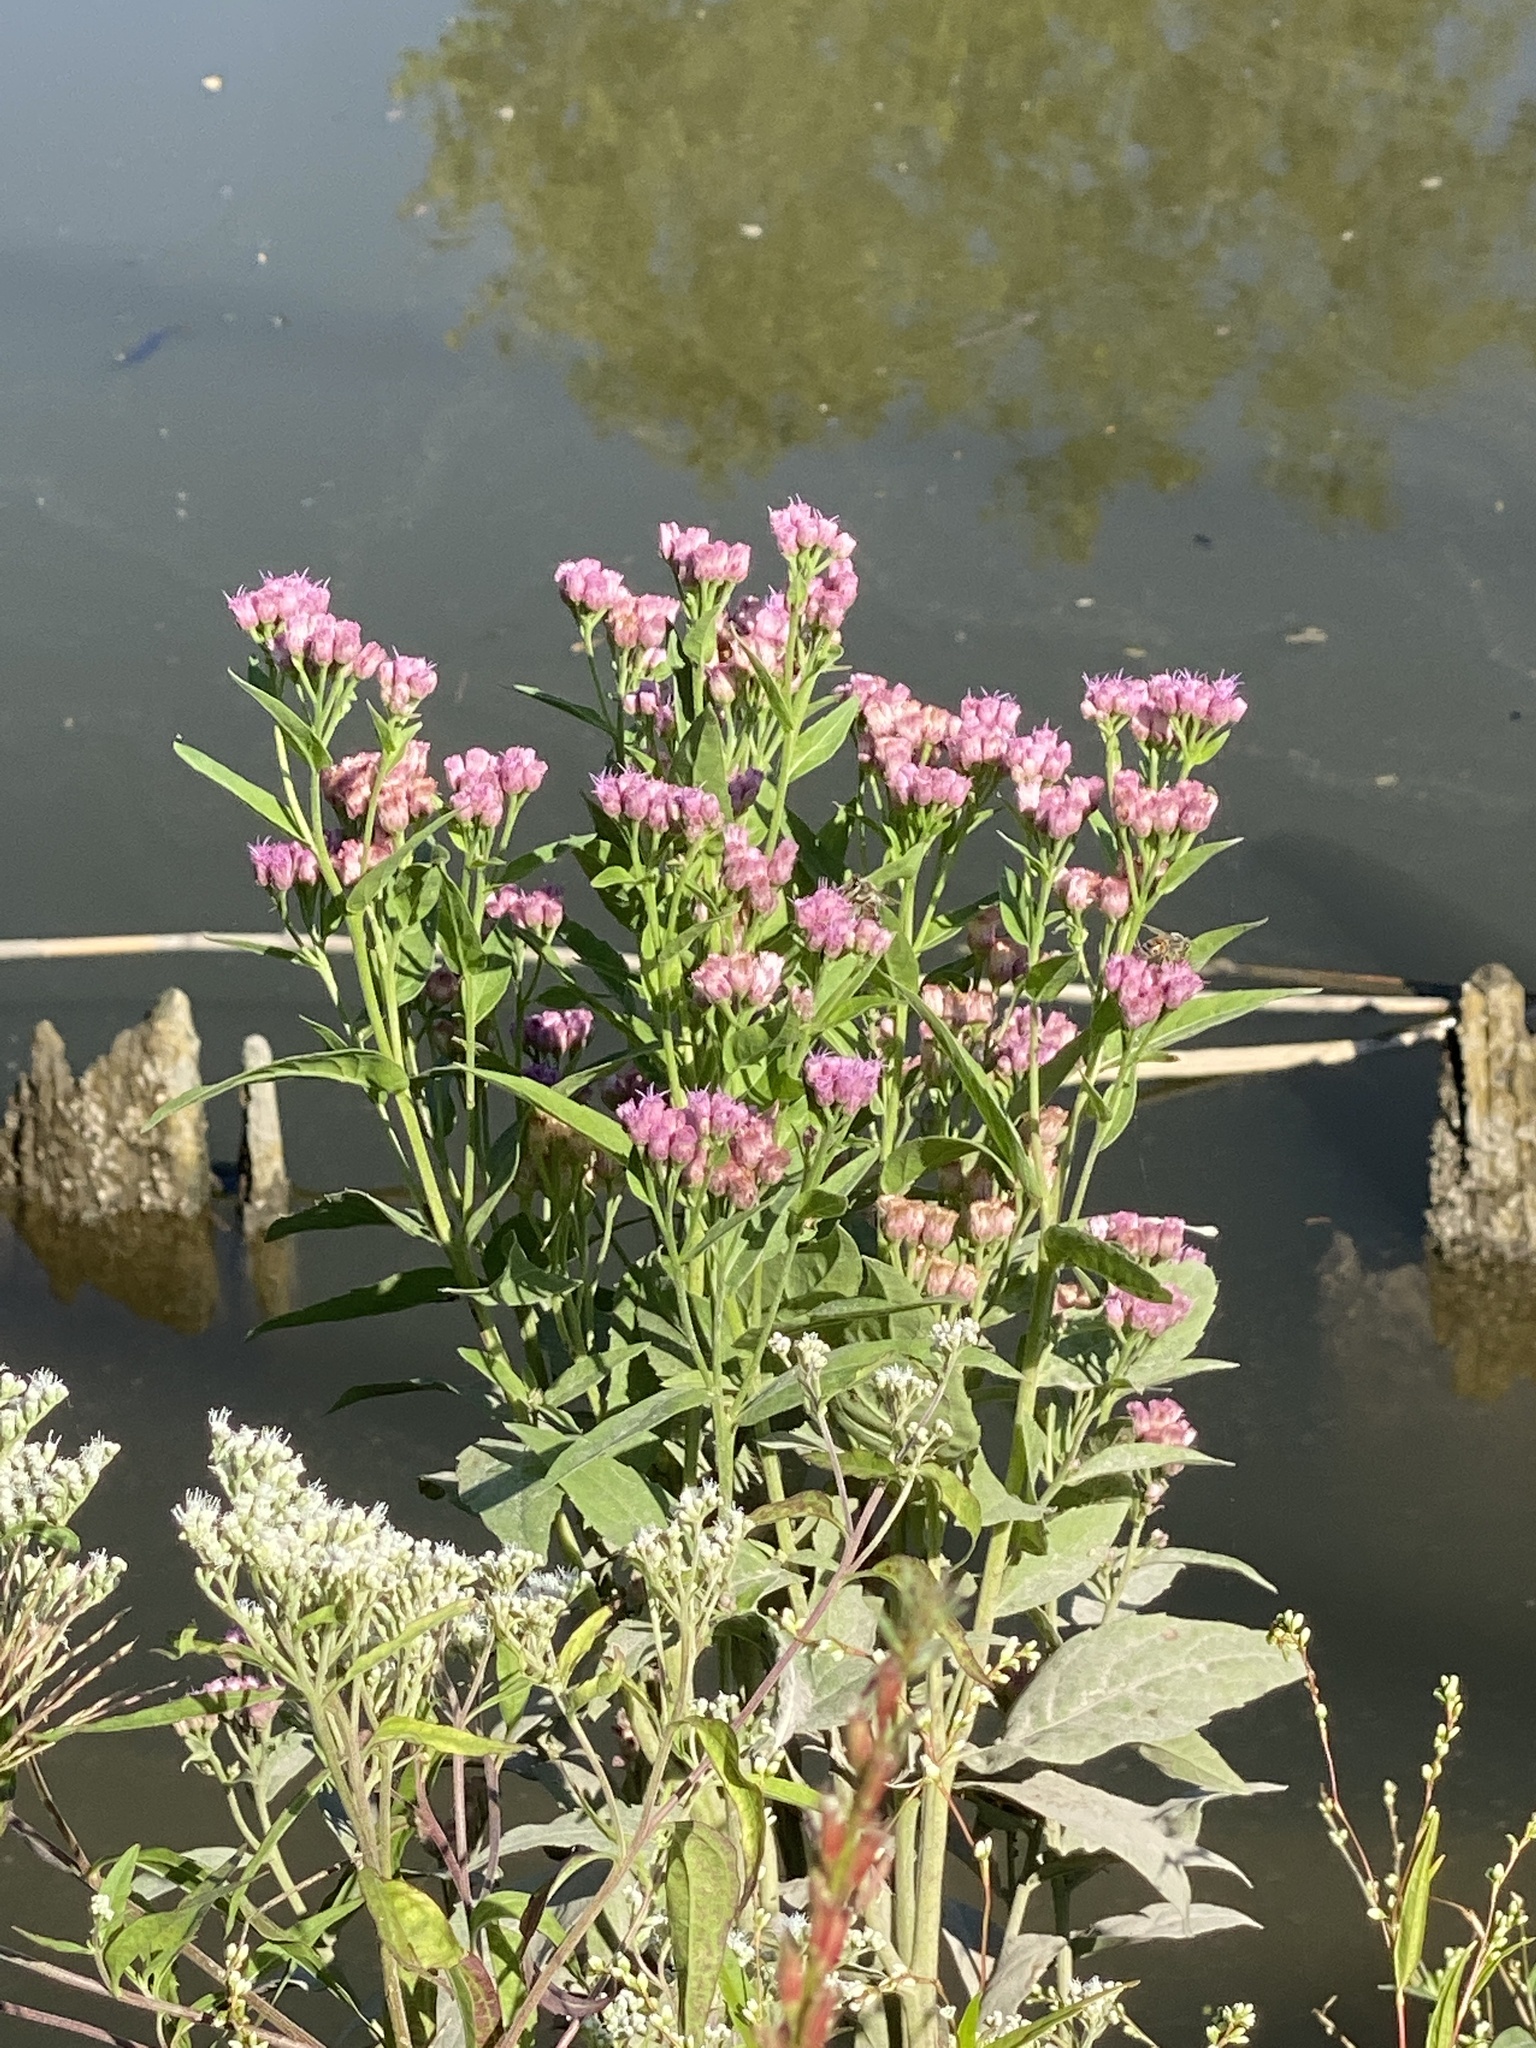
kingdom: Plantae
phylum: Tracheophyta
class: Magnoliopsida
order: Asterales
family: Asteraceae
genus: Pluchea
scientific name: Pluchea odorata
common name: Saltmarsh fleabane
